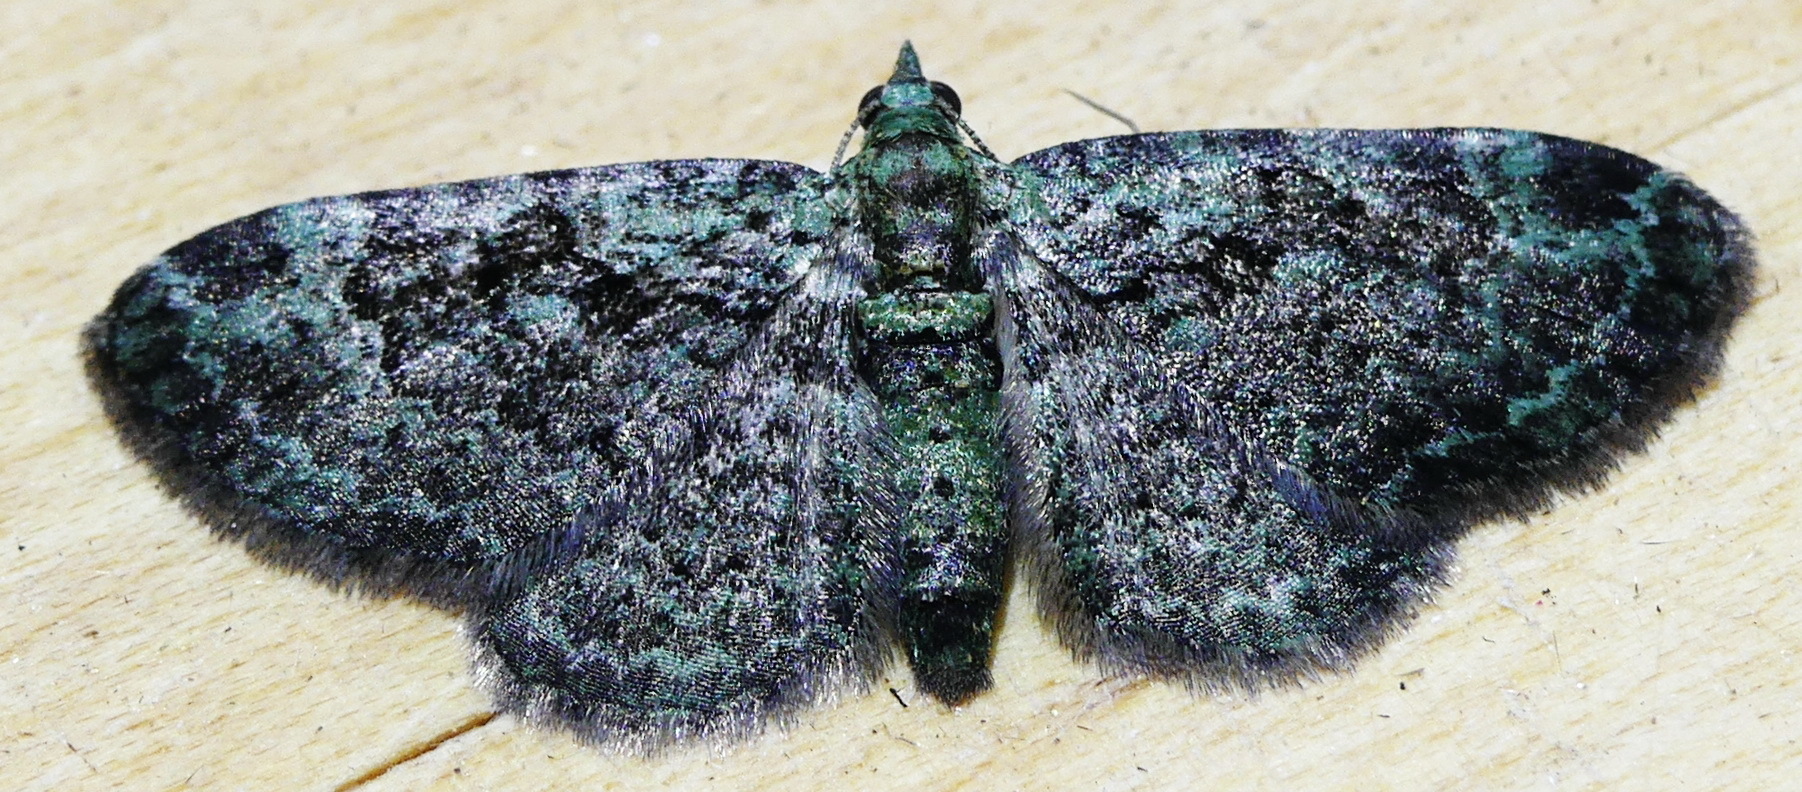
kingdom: Animalia
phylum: Arthropoda
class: Insecta
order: Lepidoptera
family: Geometridae
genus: Pasiphila
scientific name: Pasiphila rectangulata
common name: Green pug
